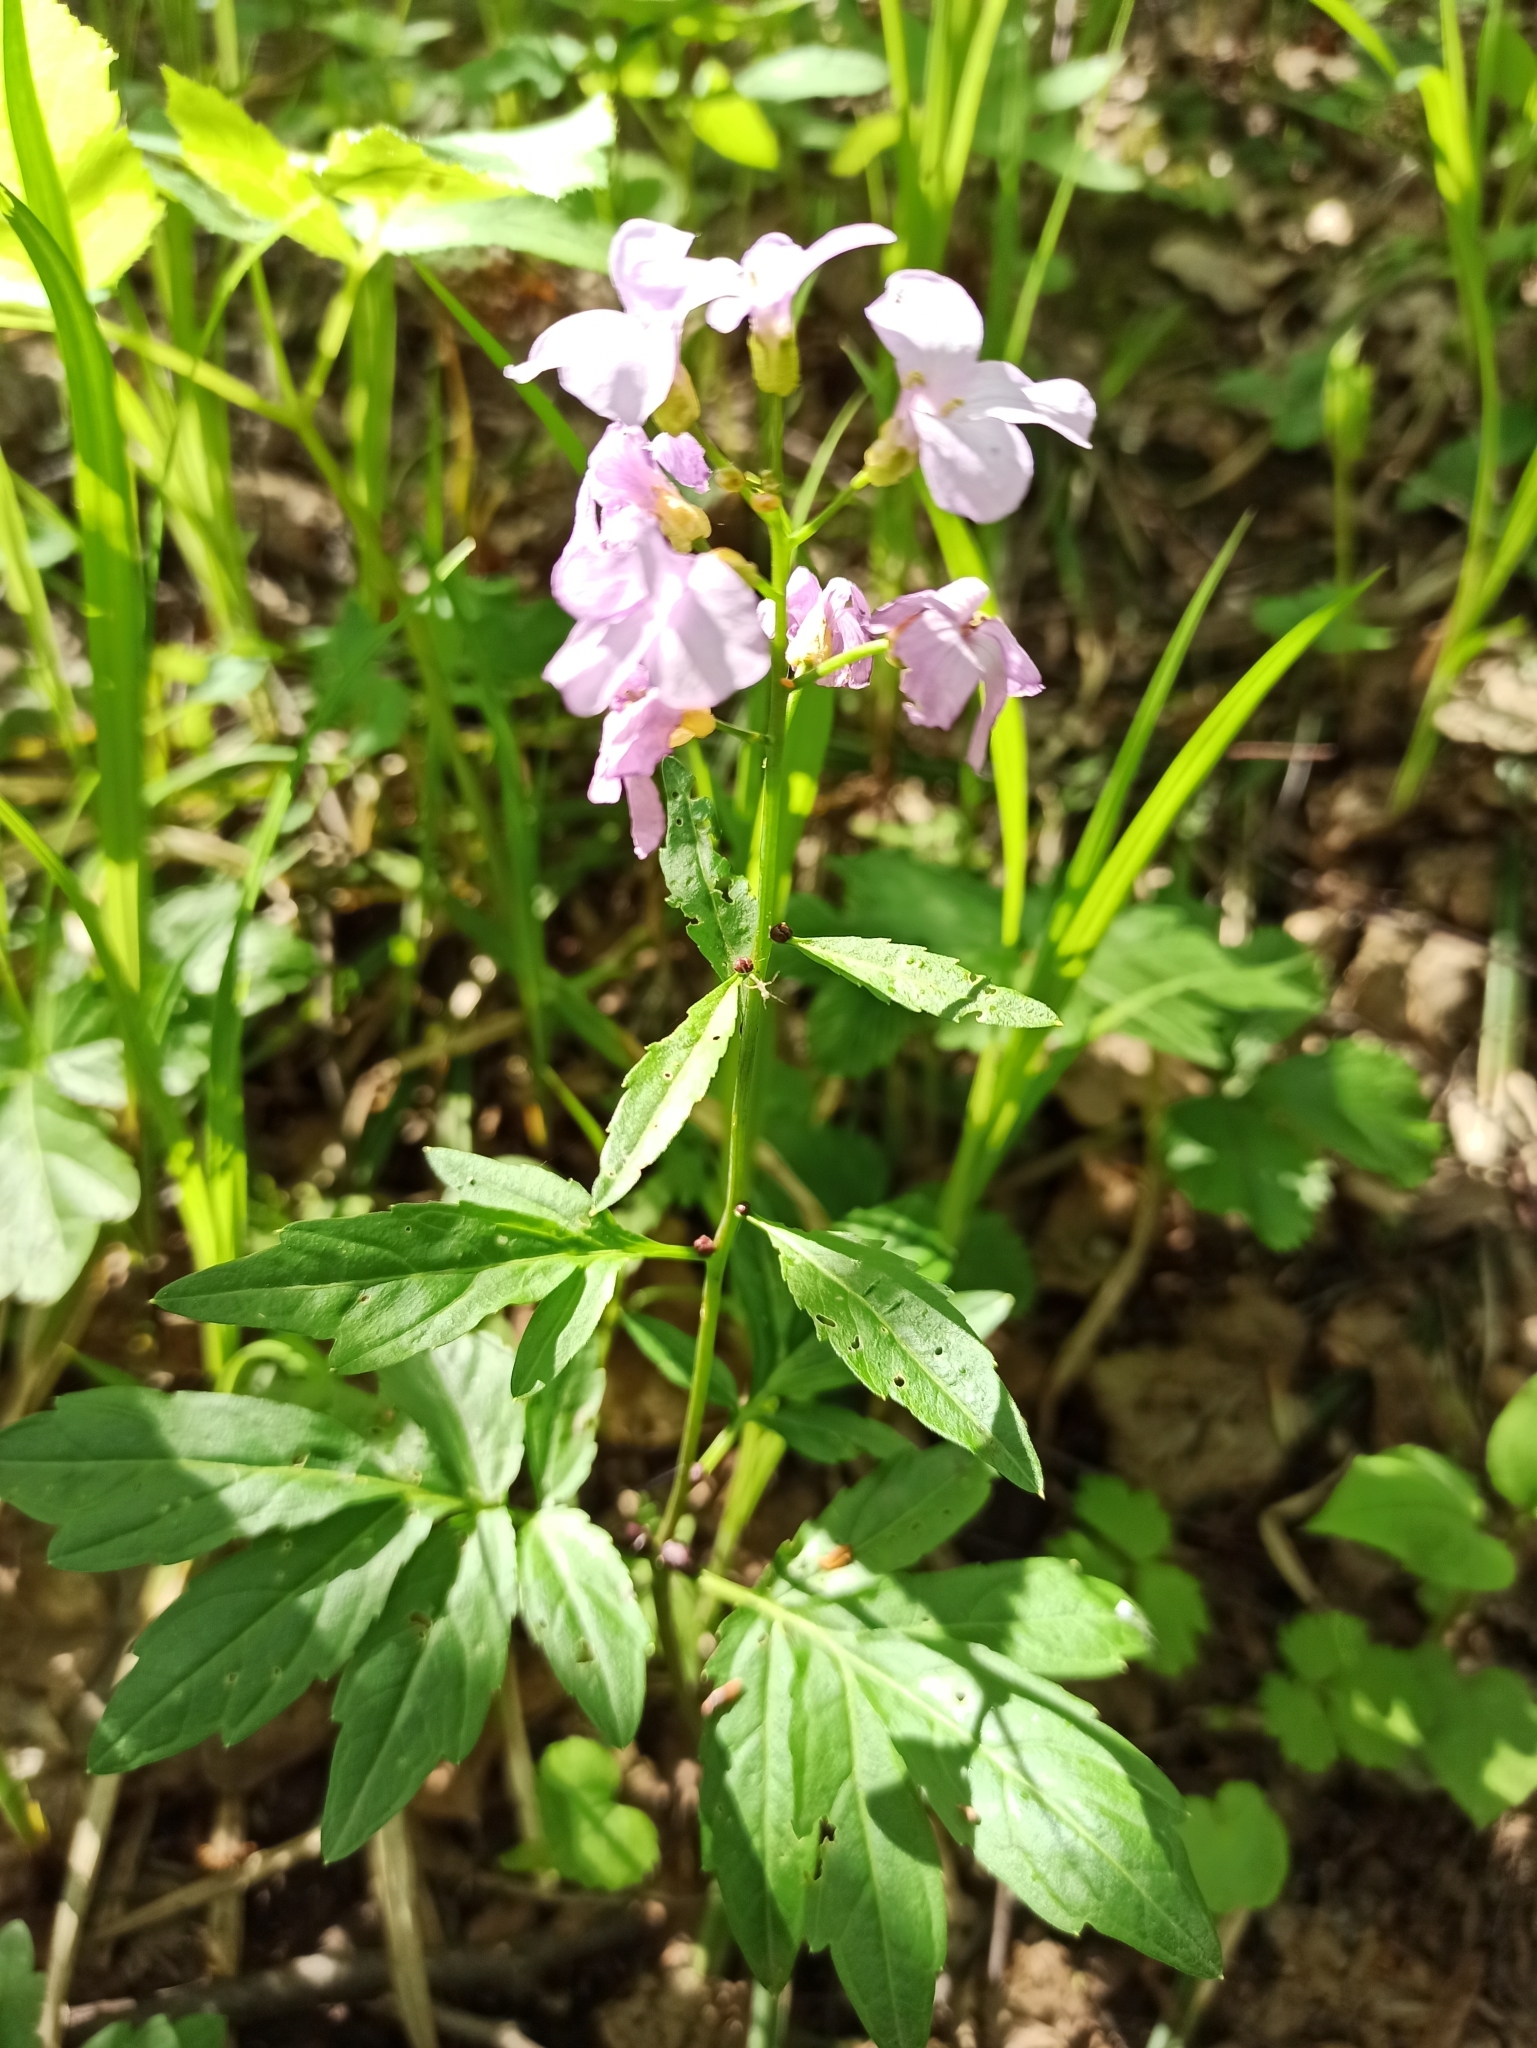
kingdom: Plantae
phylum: Tracheophyta
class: Magnoliopsida
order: Brassicales
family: Brassicaceae
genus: Cardamine
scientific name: Cardamine bulbifera
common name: Coralroot bittercress
